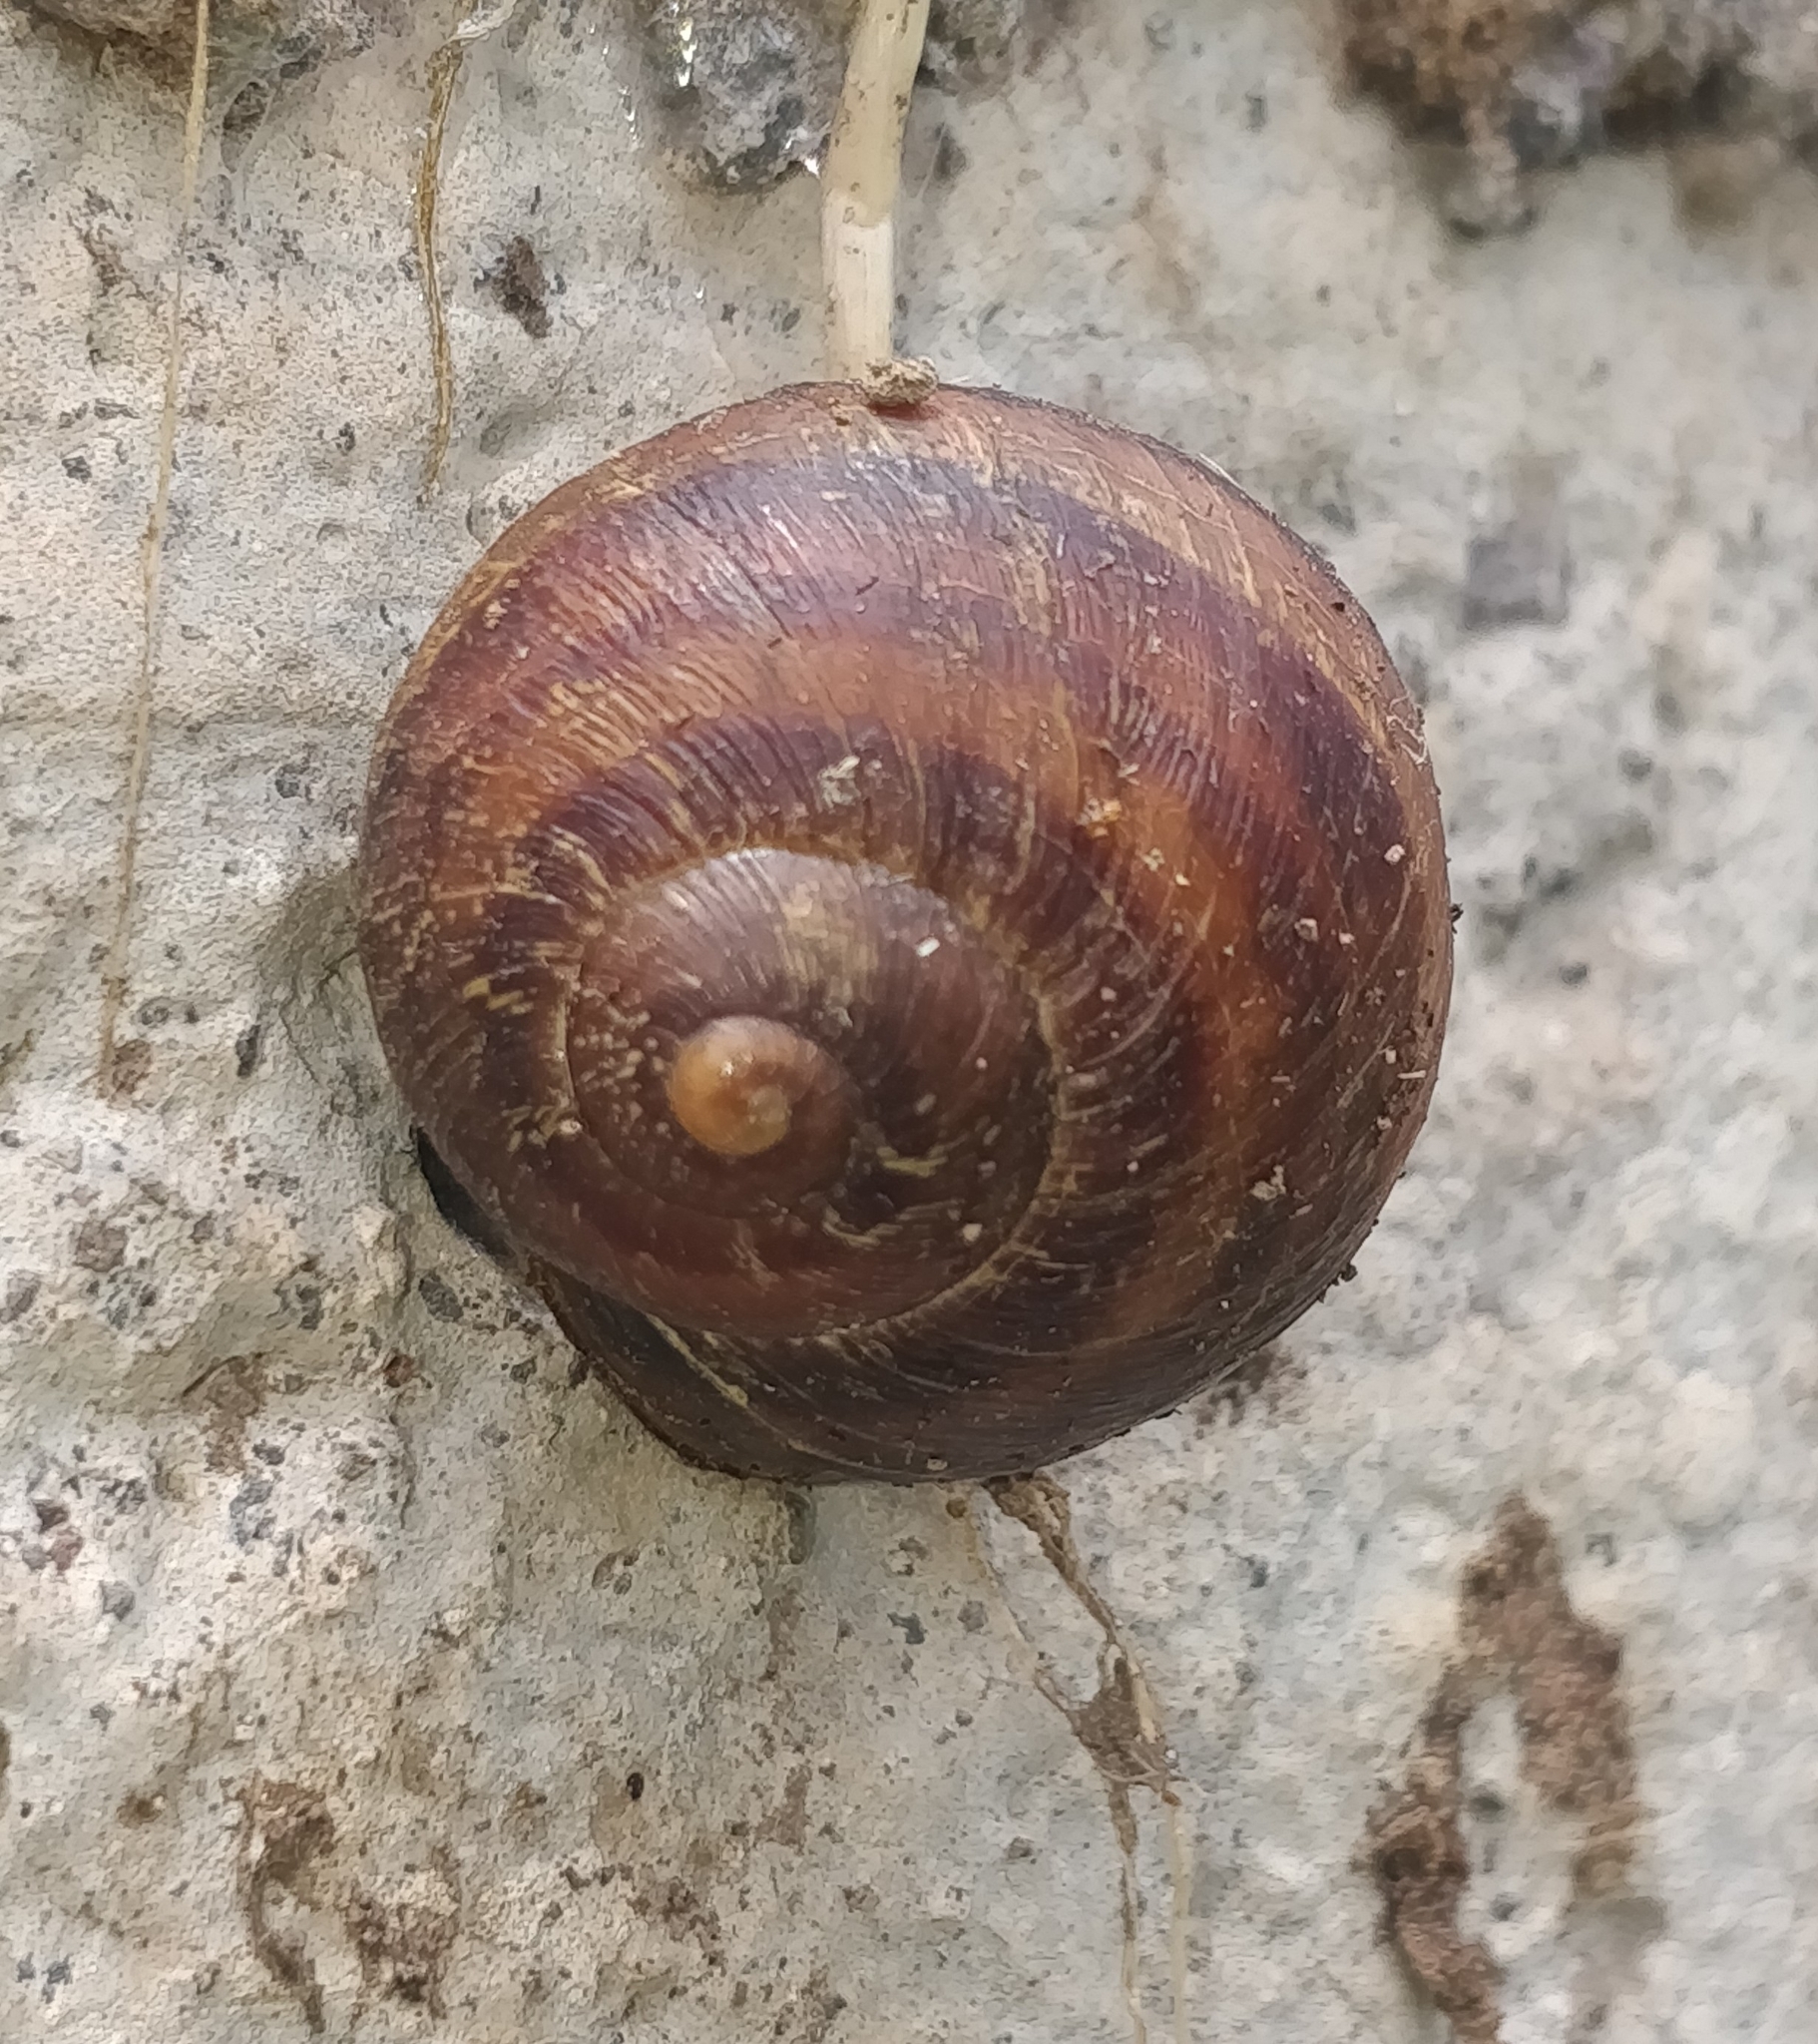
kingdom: Animalia
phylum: Mollusca
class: Gastropoda
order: Stylommatophora
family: Helicidae
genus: Cornu
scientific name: Cornu aspersum
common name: Brown garden snail
